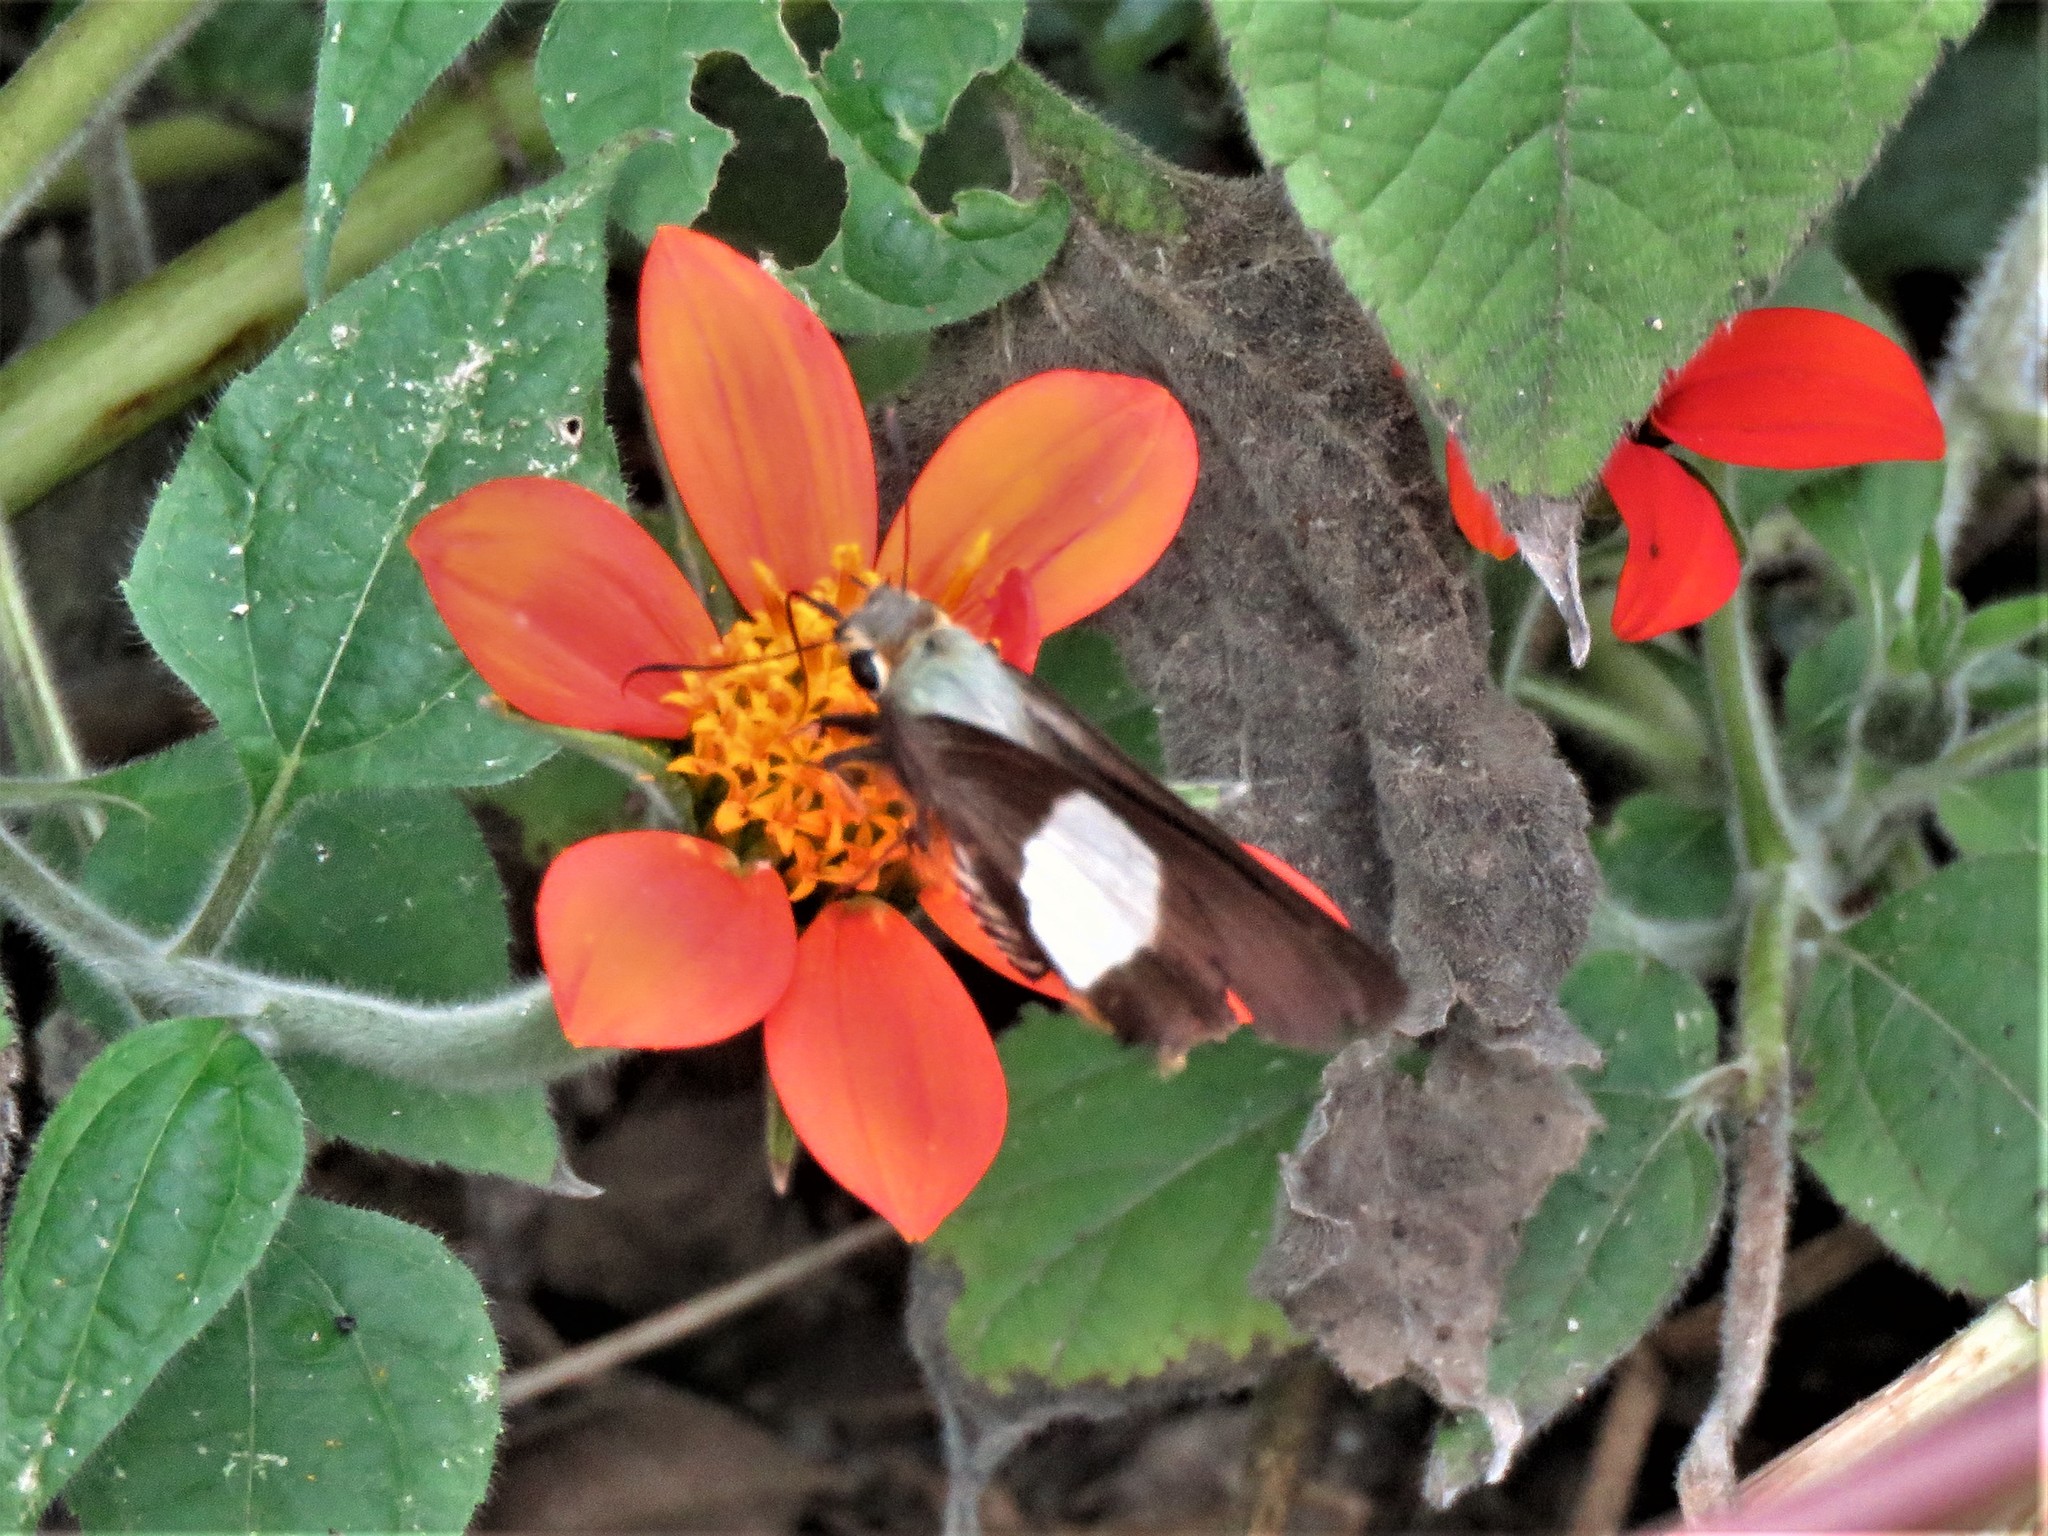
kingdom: Animalia
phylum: Arthropoda
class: Insecta
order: Lepidoptera
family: Hesperiidae
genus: Coeliades
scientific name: Coeliades forestan
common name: Striped policeman
